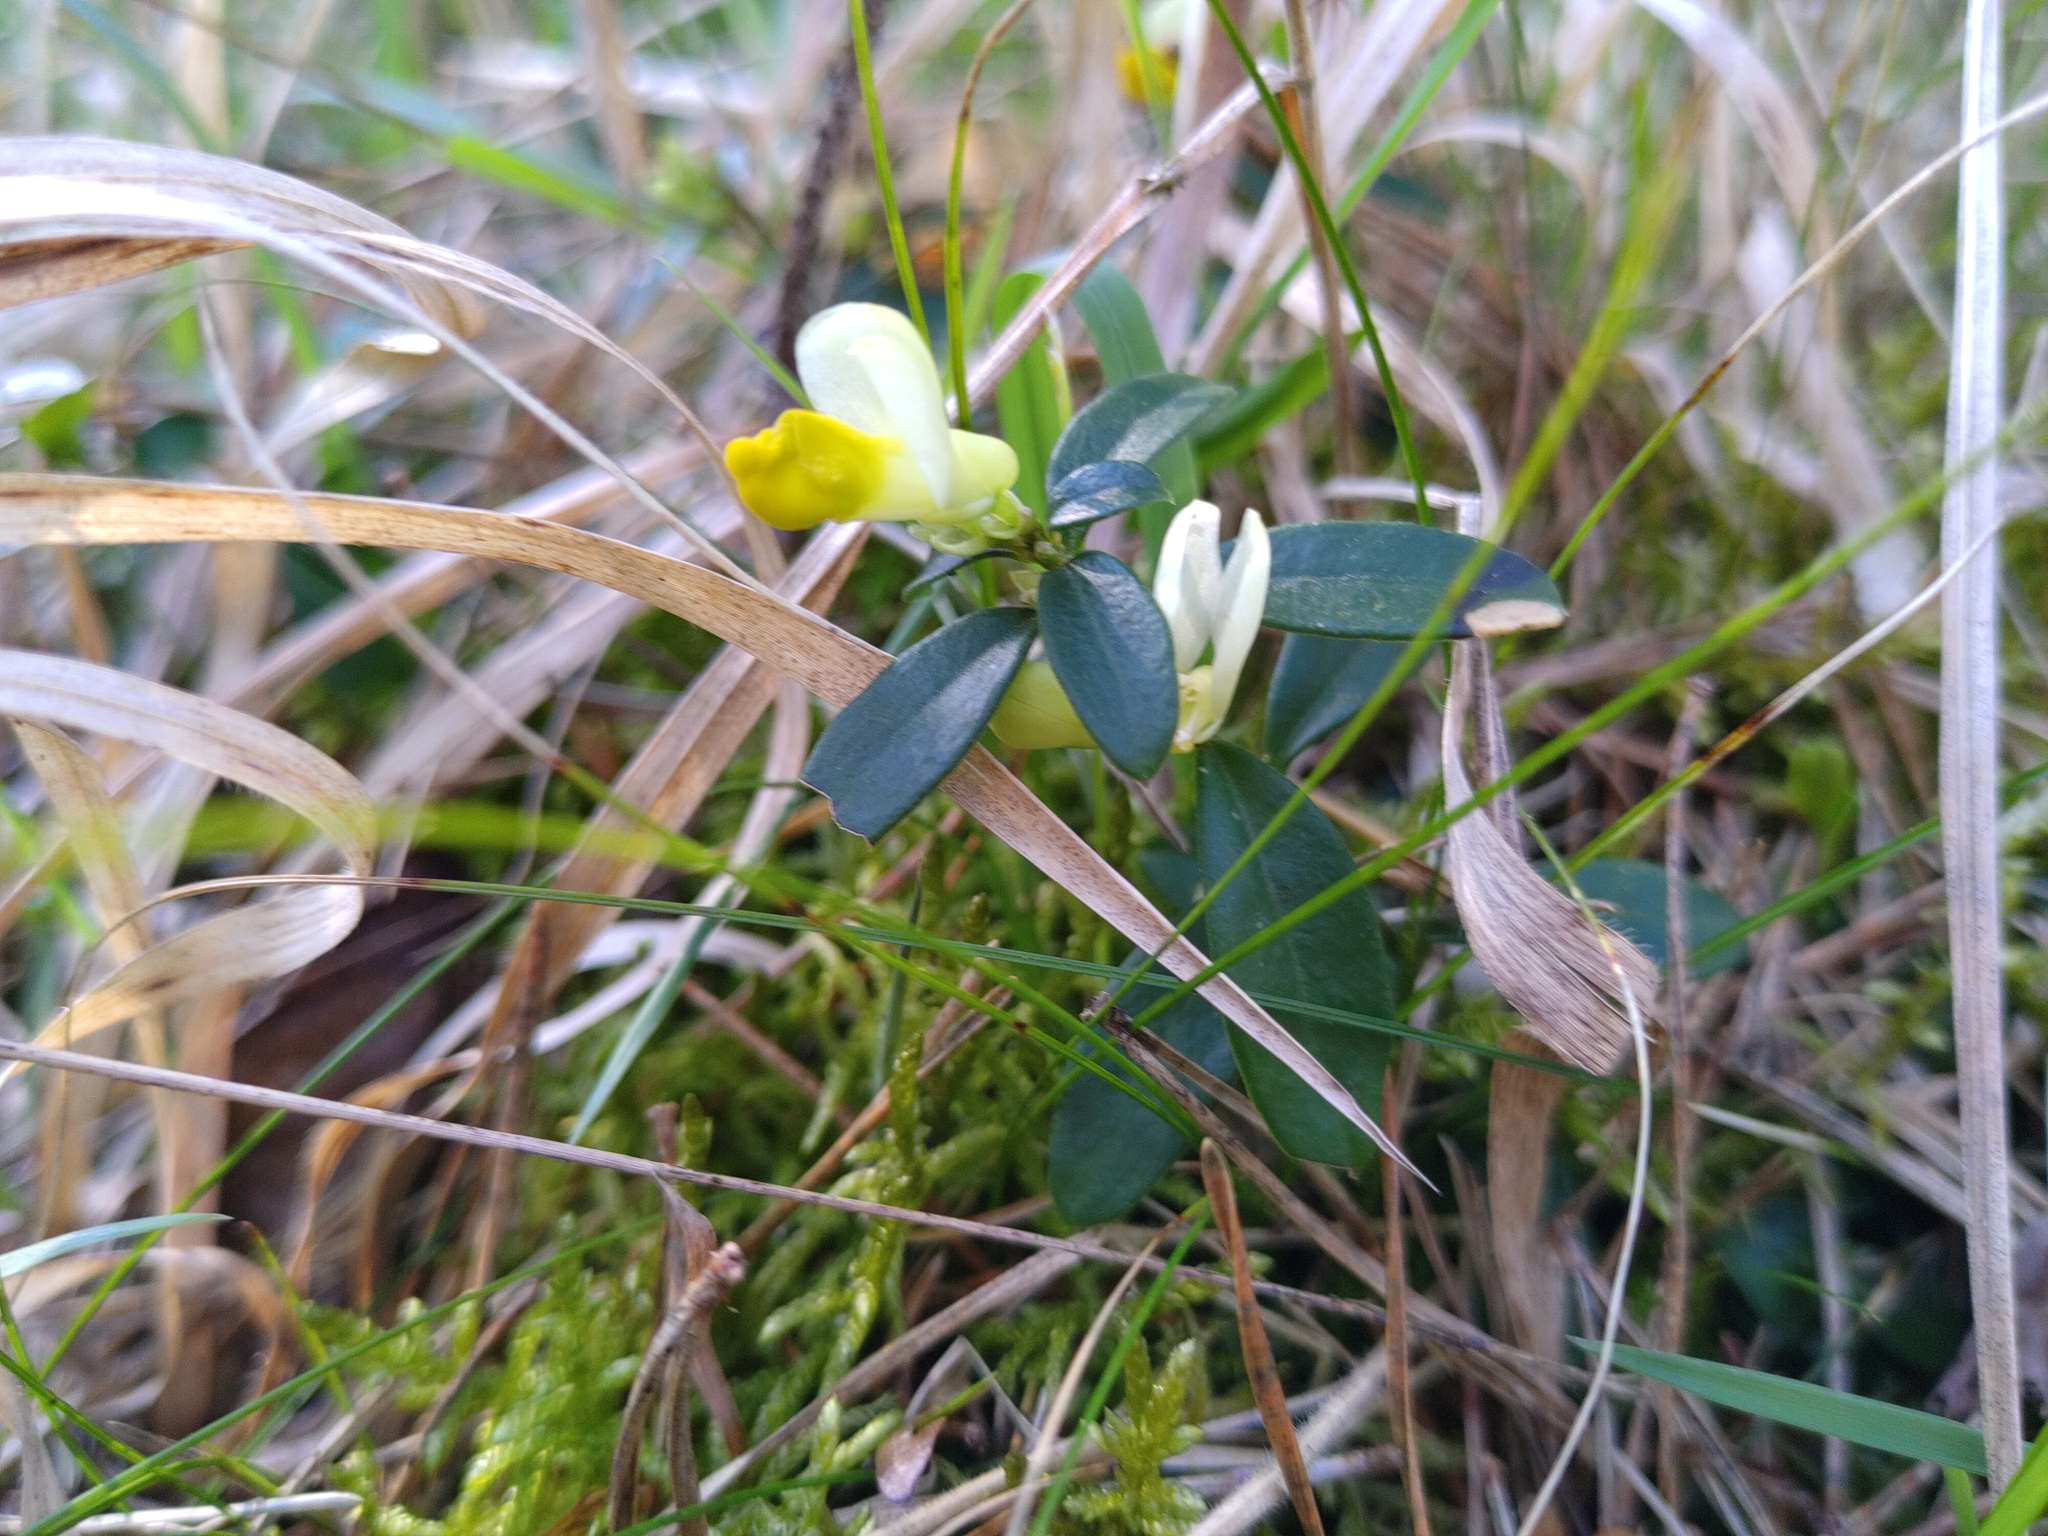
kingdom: Plantae
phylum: Tracheophyta
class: Magnoliopsida
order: Fabales
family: Polygalaceae
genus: Polygaloides
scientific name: Polygaloides chamaebuxus
